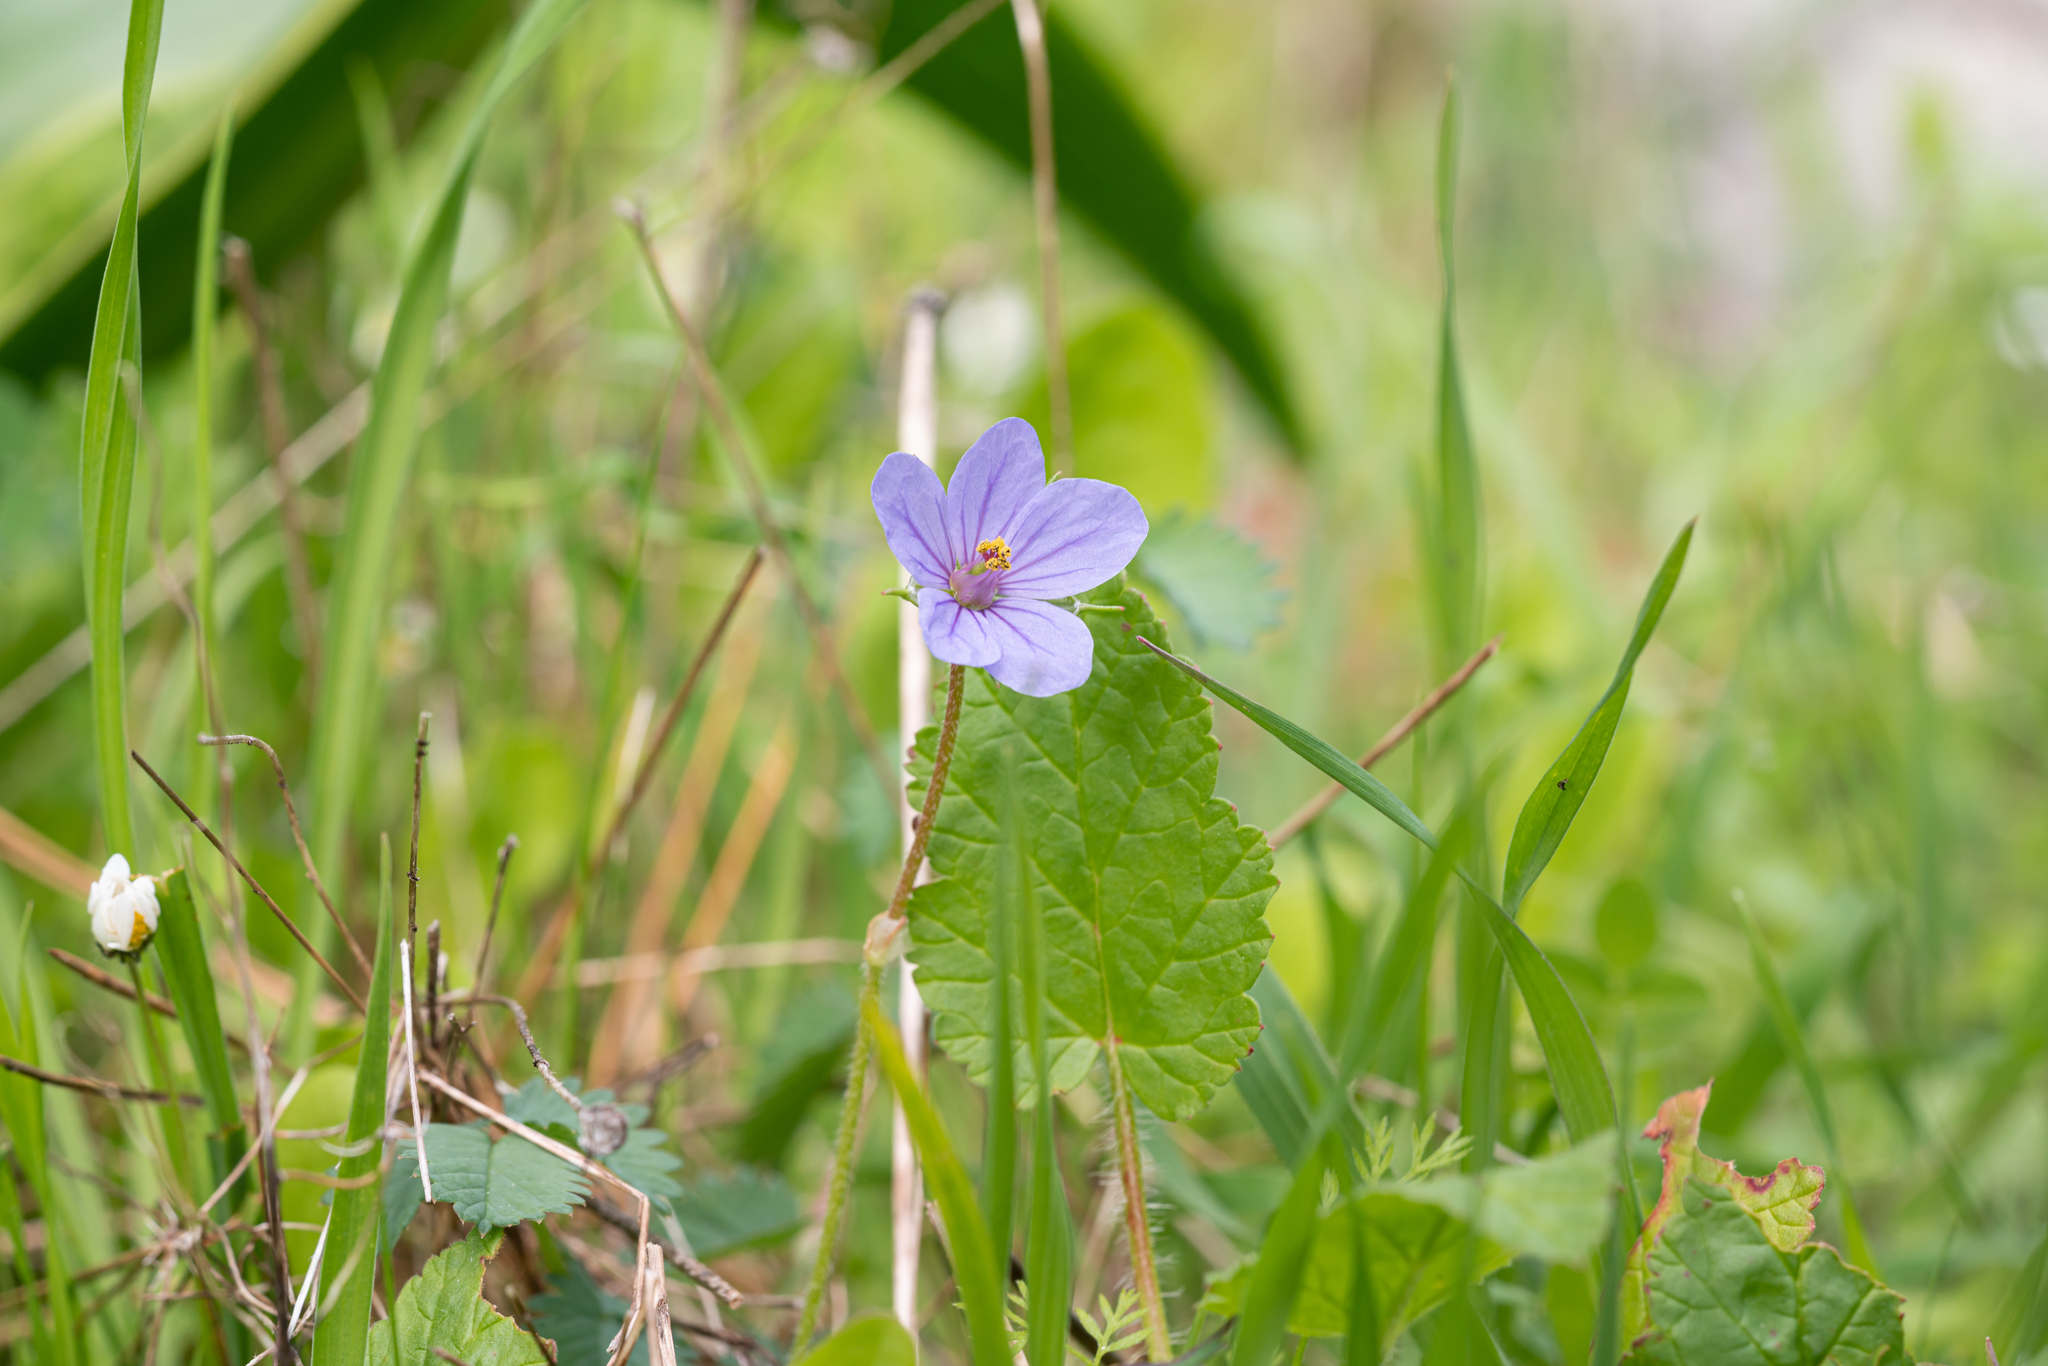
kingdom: Plantae
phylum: Tracheophyta
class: Magnoliopsida
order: Geraniales
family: Geraniaceae
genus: Erodium
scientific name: Erodium gruinum
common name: Iranian stork's bill
